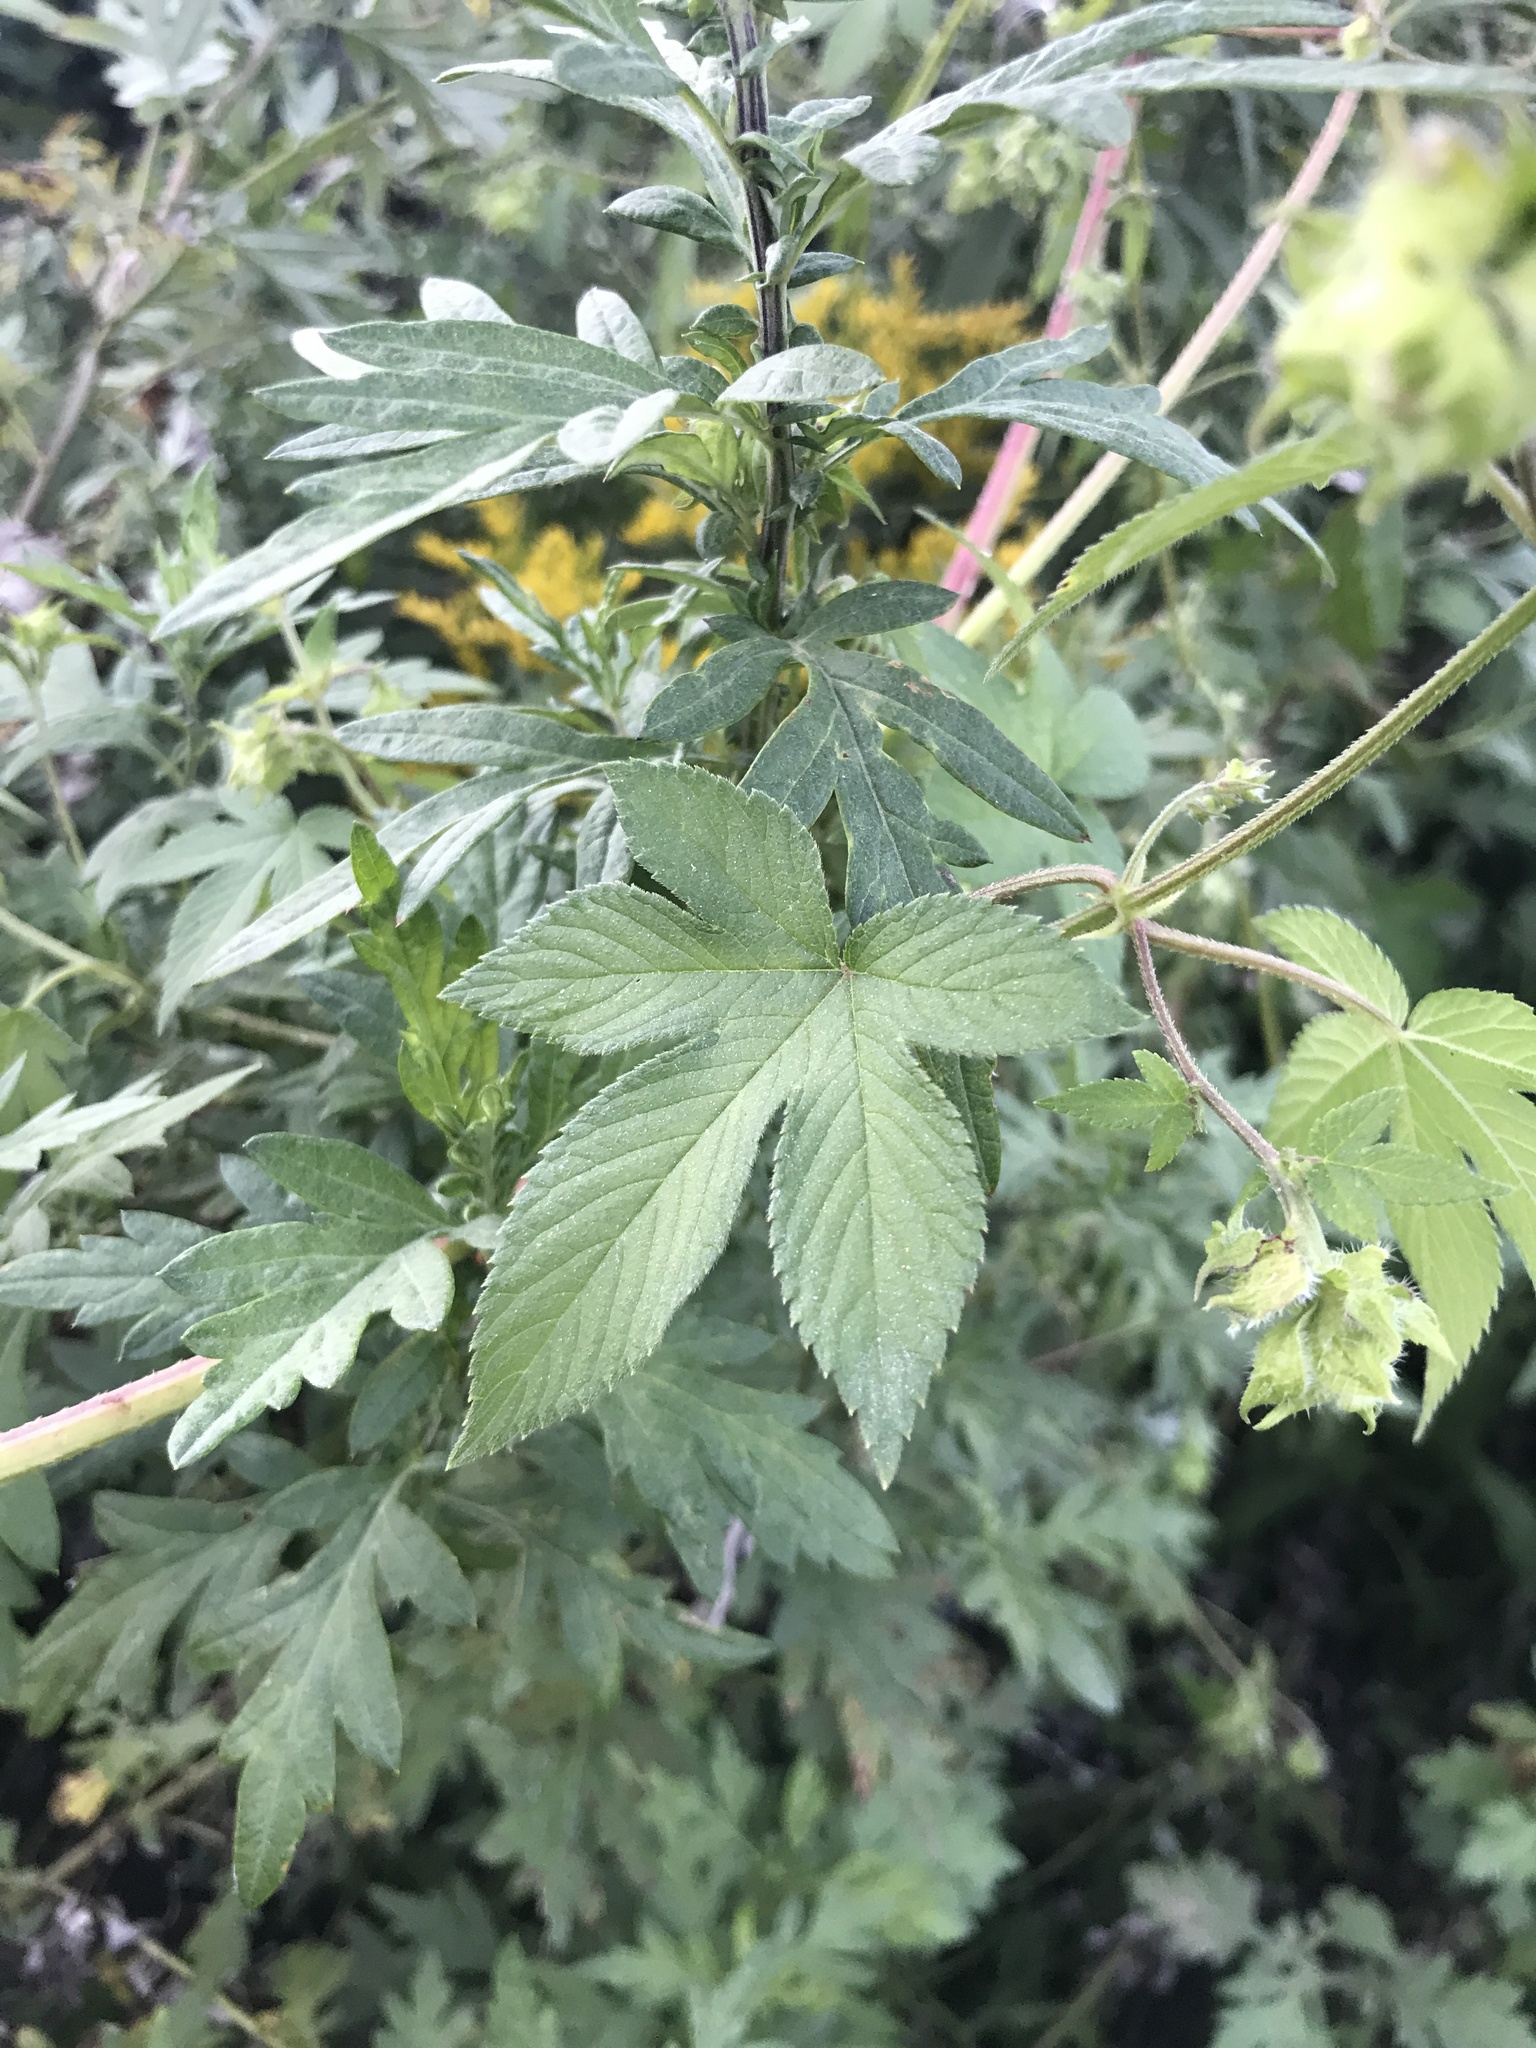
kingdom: Plantae
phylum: Tracheophyta
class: Magnoliopsida
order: Rosales
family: Cannabaceae
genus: Humulus
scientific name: Humulus scandens
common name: Japanese hop
